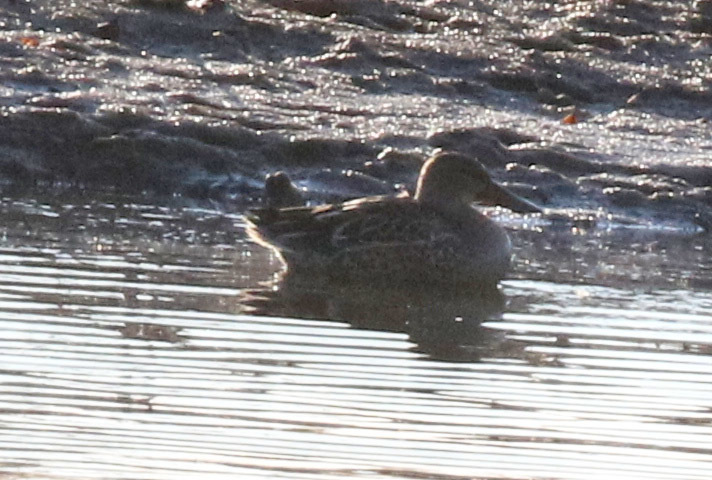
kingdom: Animalia
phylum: Chordata
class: Aves
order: Anseriformes
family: Anatidae
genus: Spatula
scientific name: Spatula clypeata
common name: Northern shoveler
